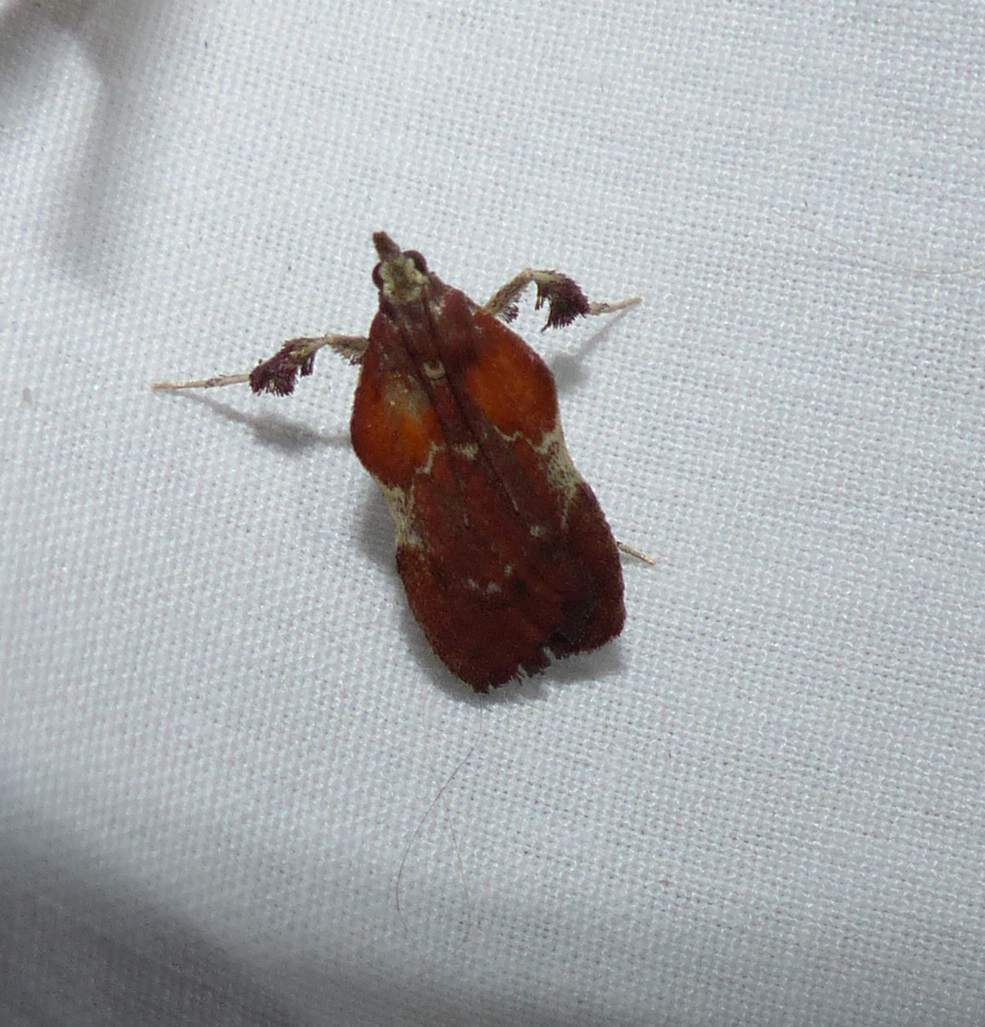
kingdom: Animalia
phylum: Arthropoda
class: Insecta
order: Lepidoptera
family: Pyralidae
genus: Galasa
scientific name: Galasa nigrinodis
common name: Boxwood leaftier moth
